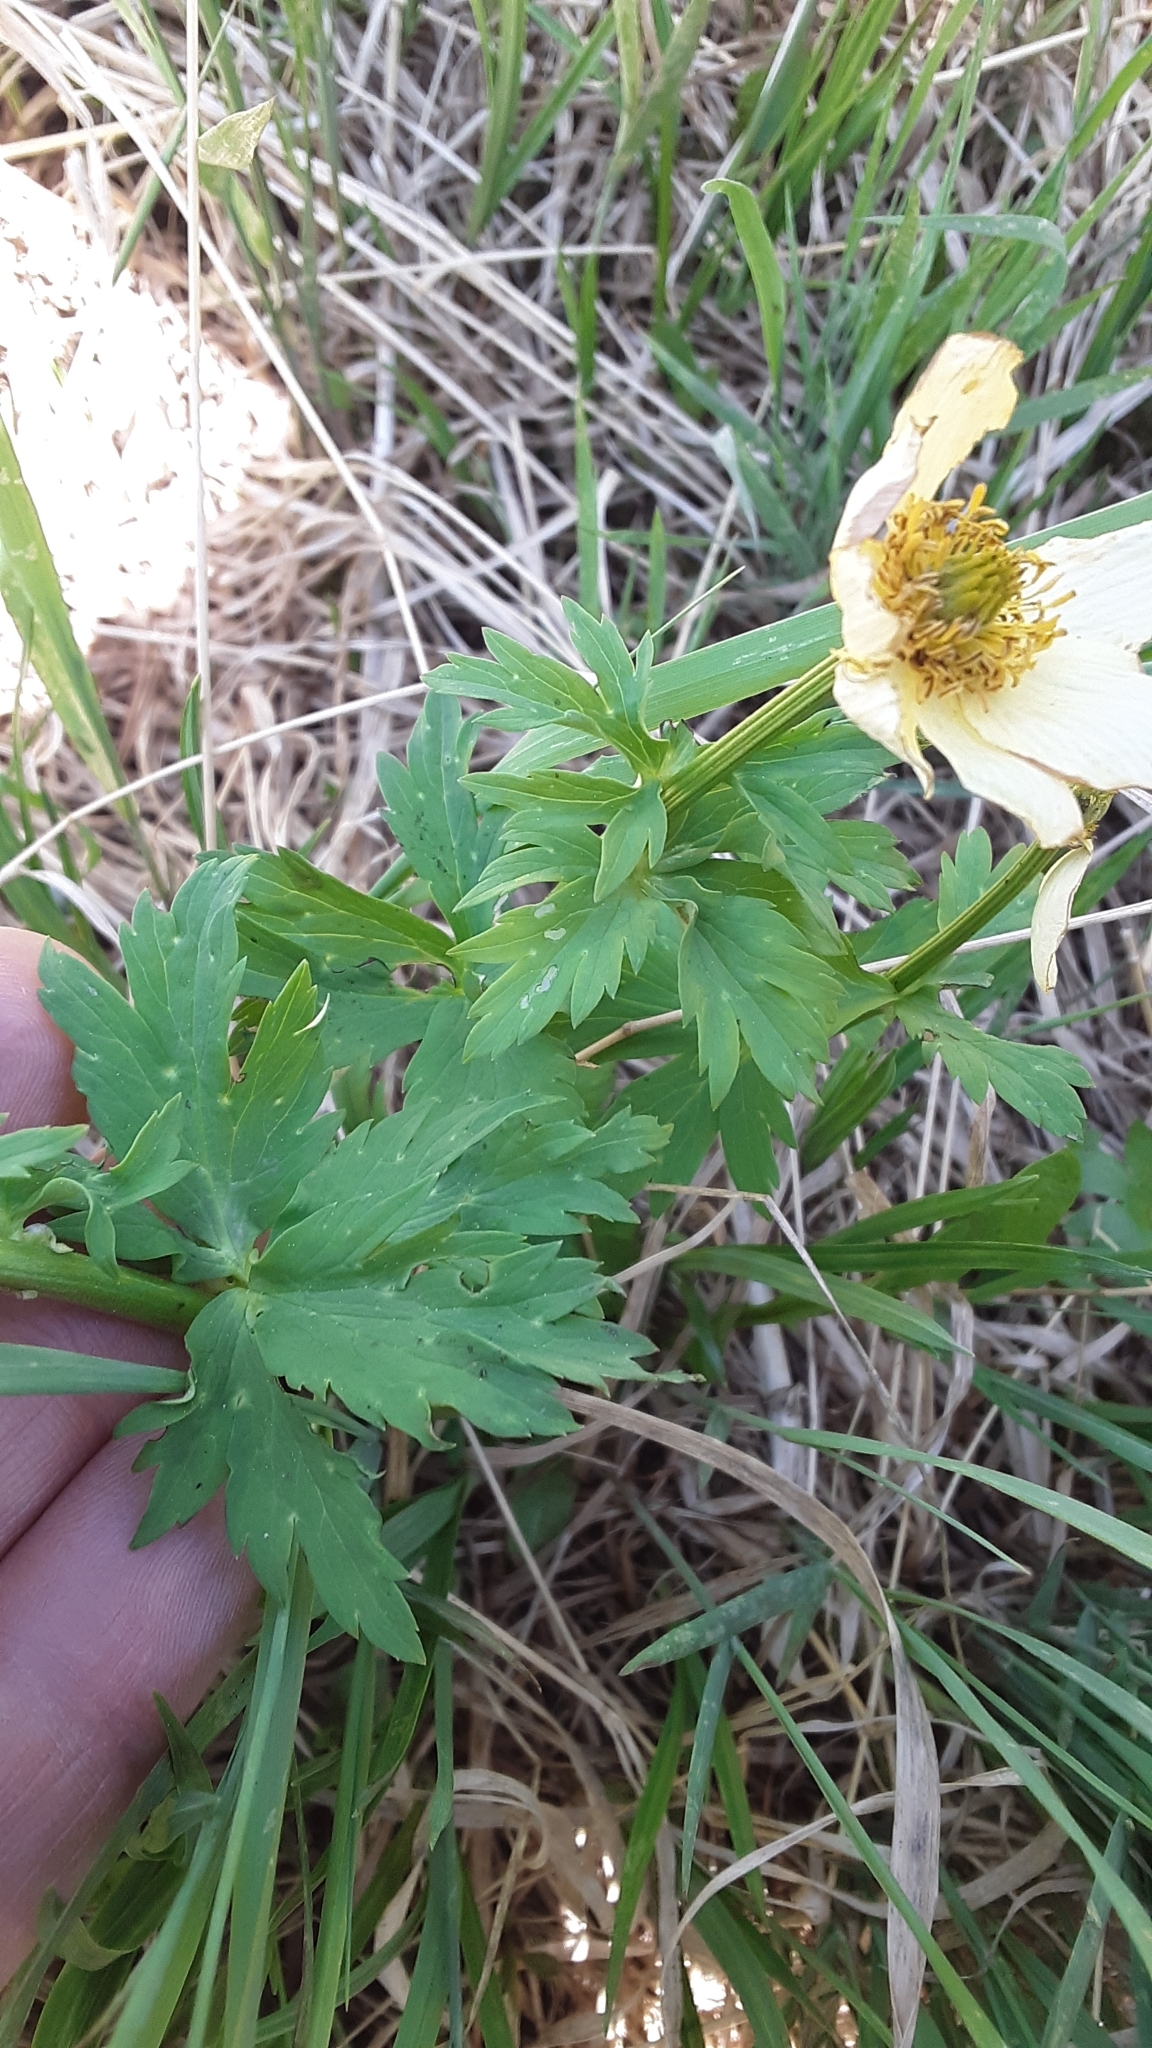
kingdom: Plantae
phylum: Tracheophyta
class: Magnoliopsida
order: Ranunculales
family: Ranunculaceae
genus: Trollius
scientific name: Trollius laxus
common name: American globeflower
